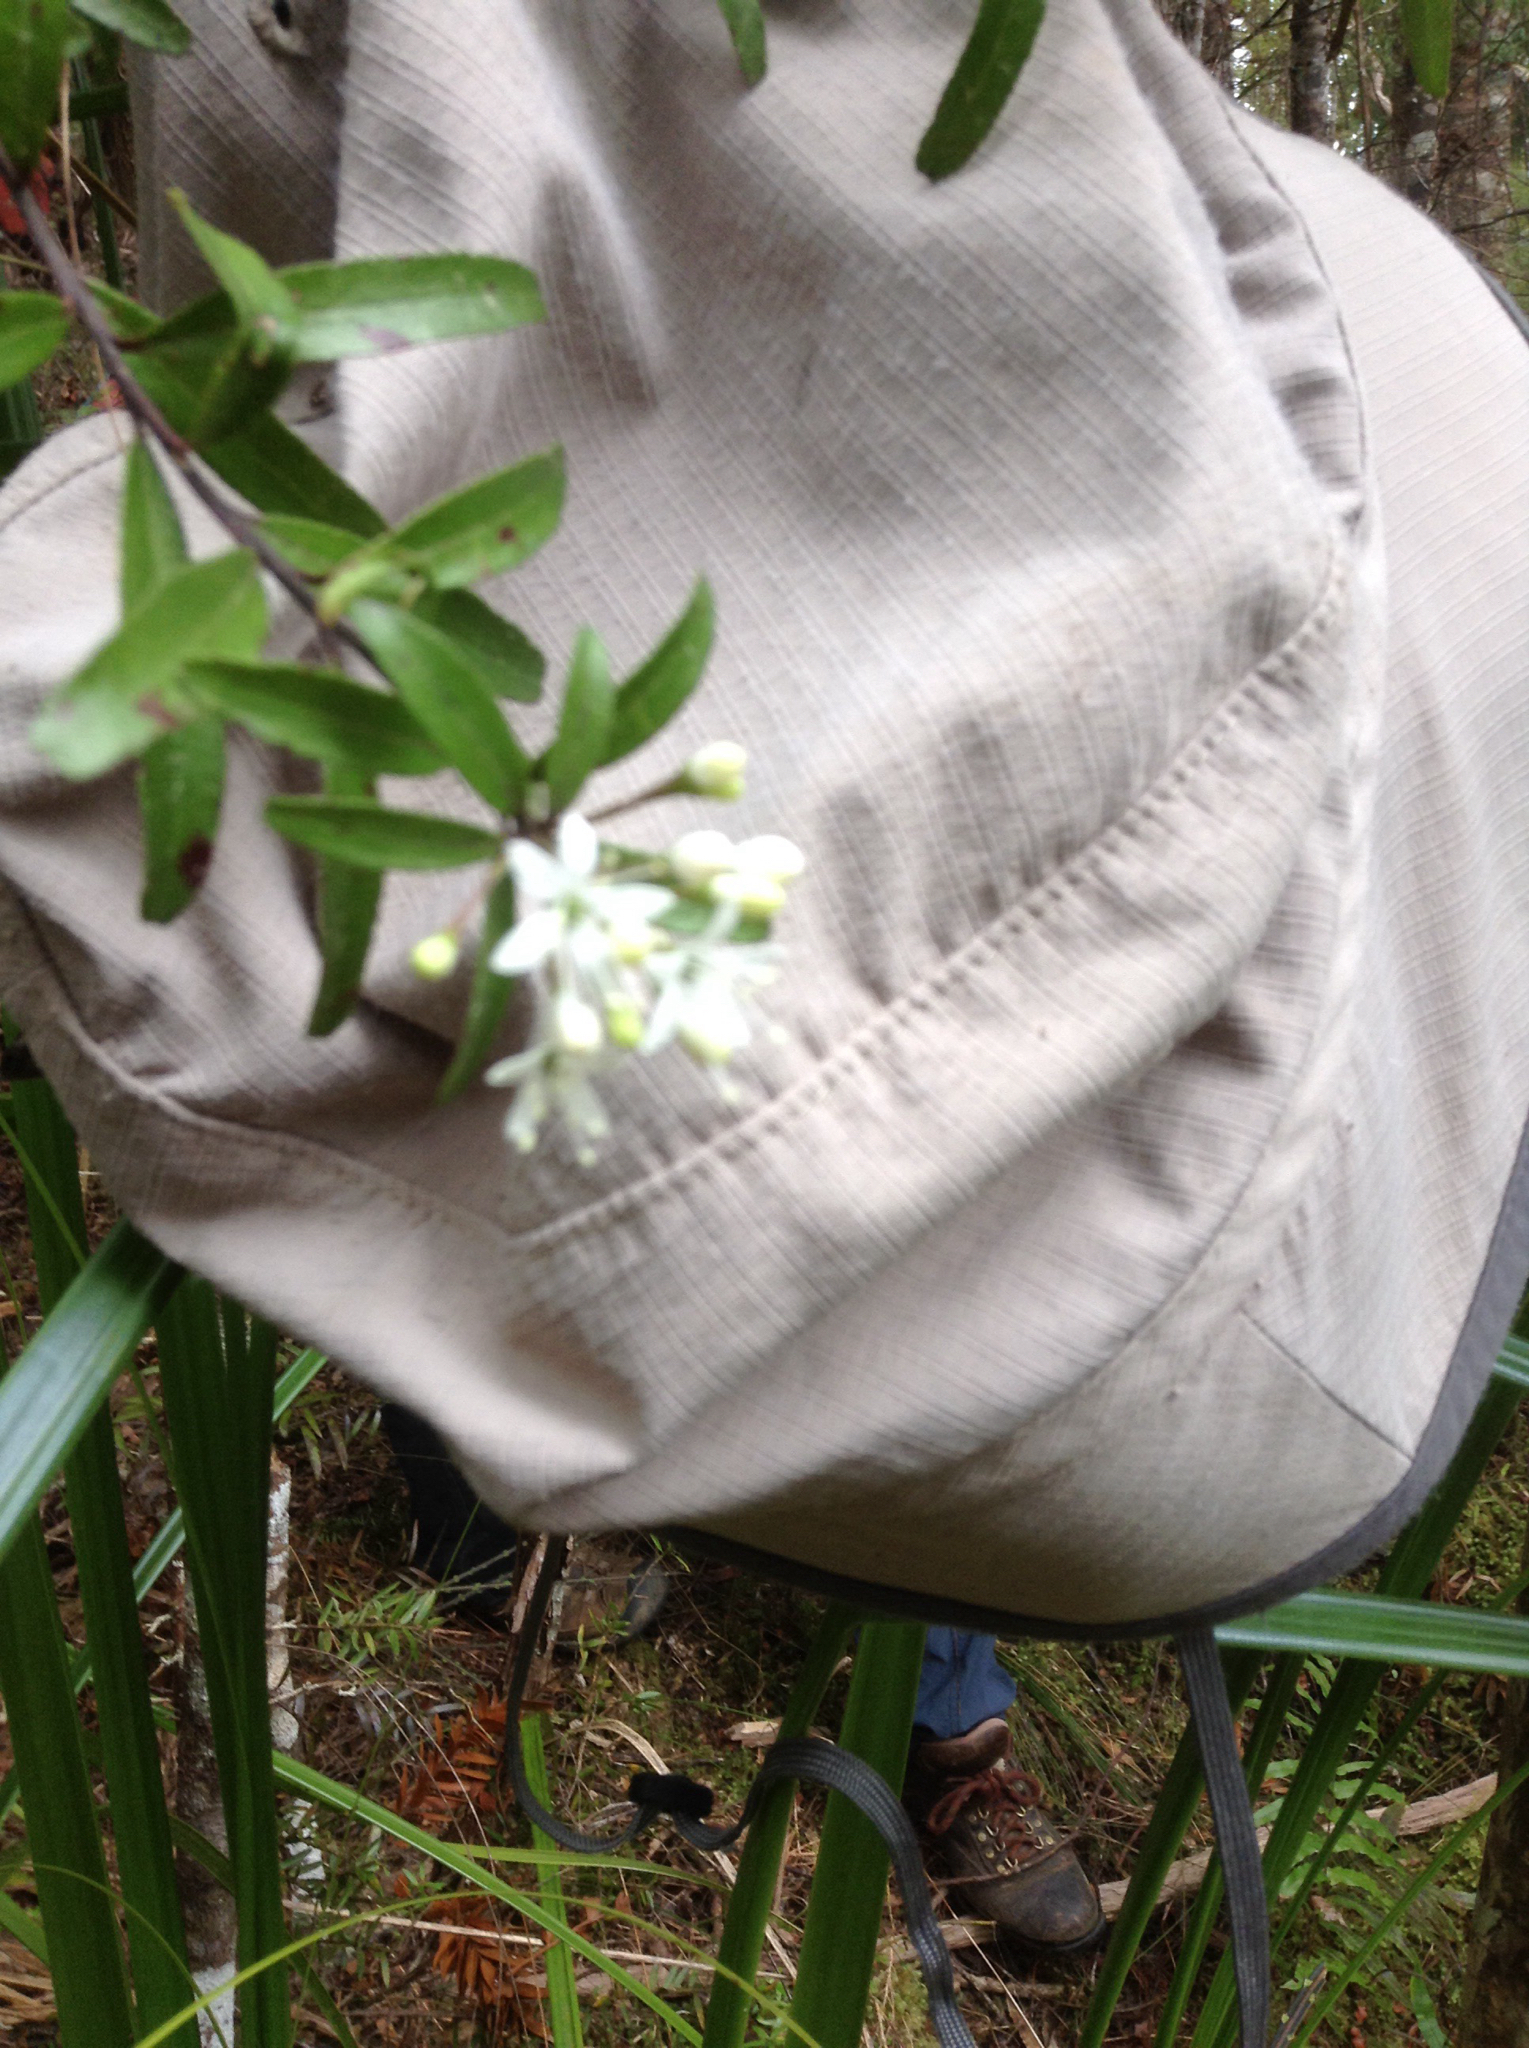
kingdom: Plantae
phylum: Tracheophyta
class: Magnoliopsida
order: Sapindales
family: Rutaceae
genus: Leionema
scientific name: Leionema nudum
